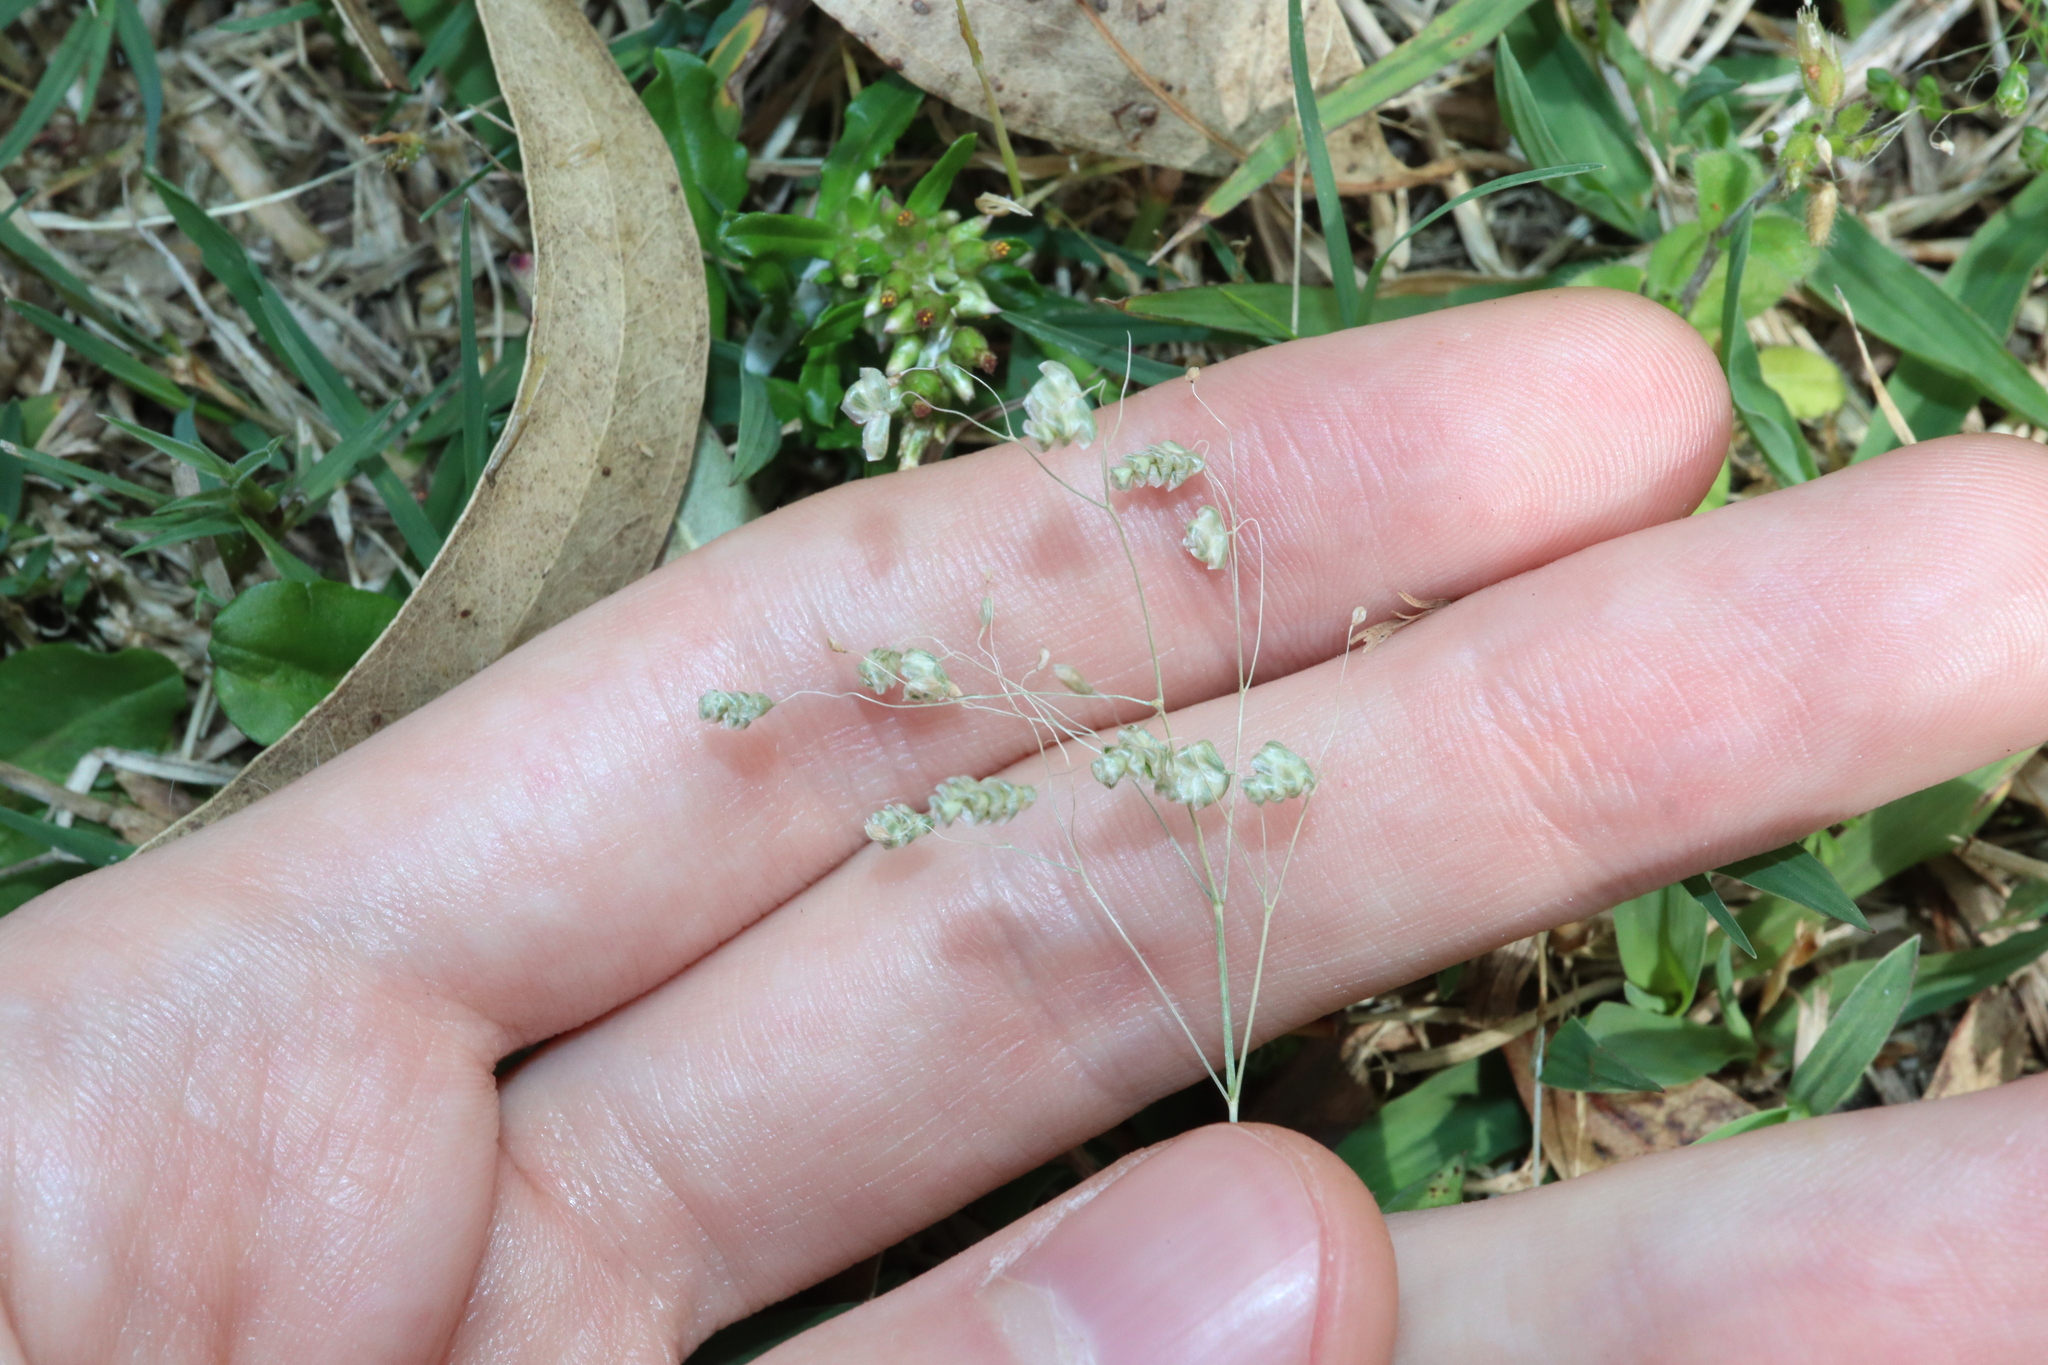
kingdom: Plantae
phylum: Tracheophyta
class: Liliopsida
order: Poales
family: Poaceae
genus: Briza
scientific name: Briza minor
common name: Lesser quaking-grass
